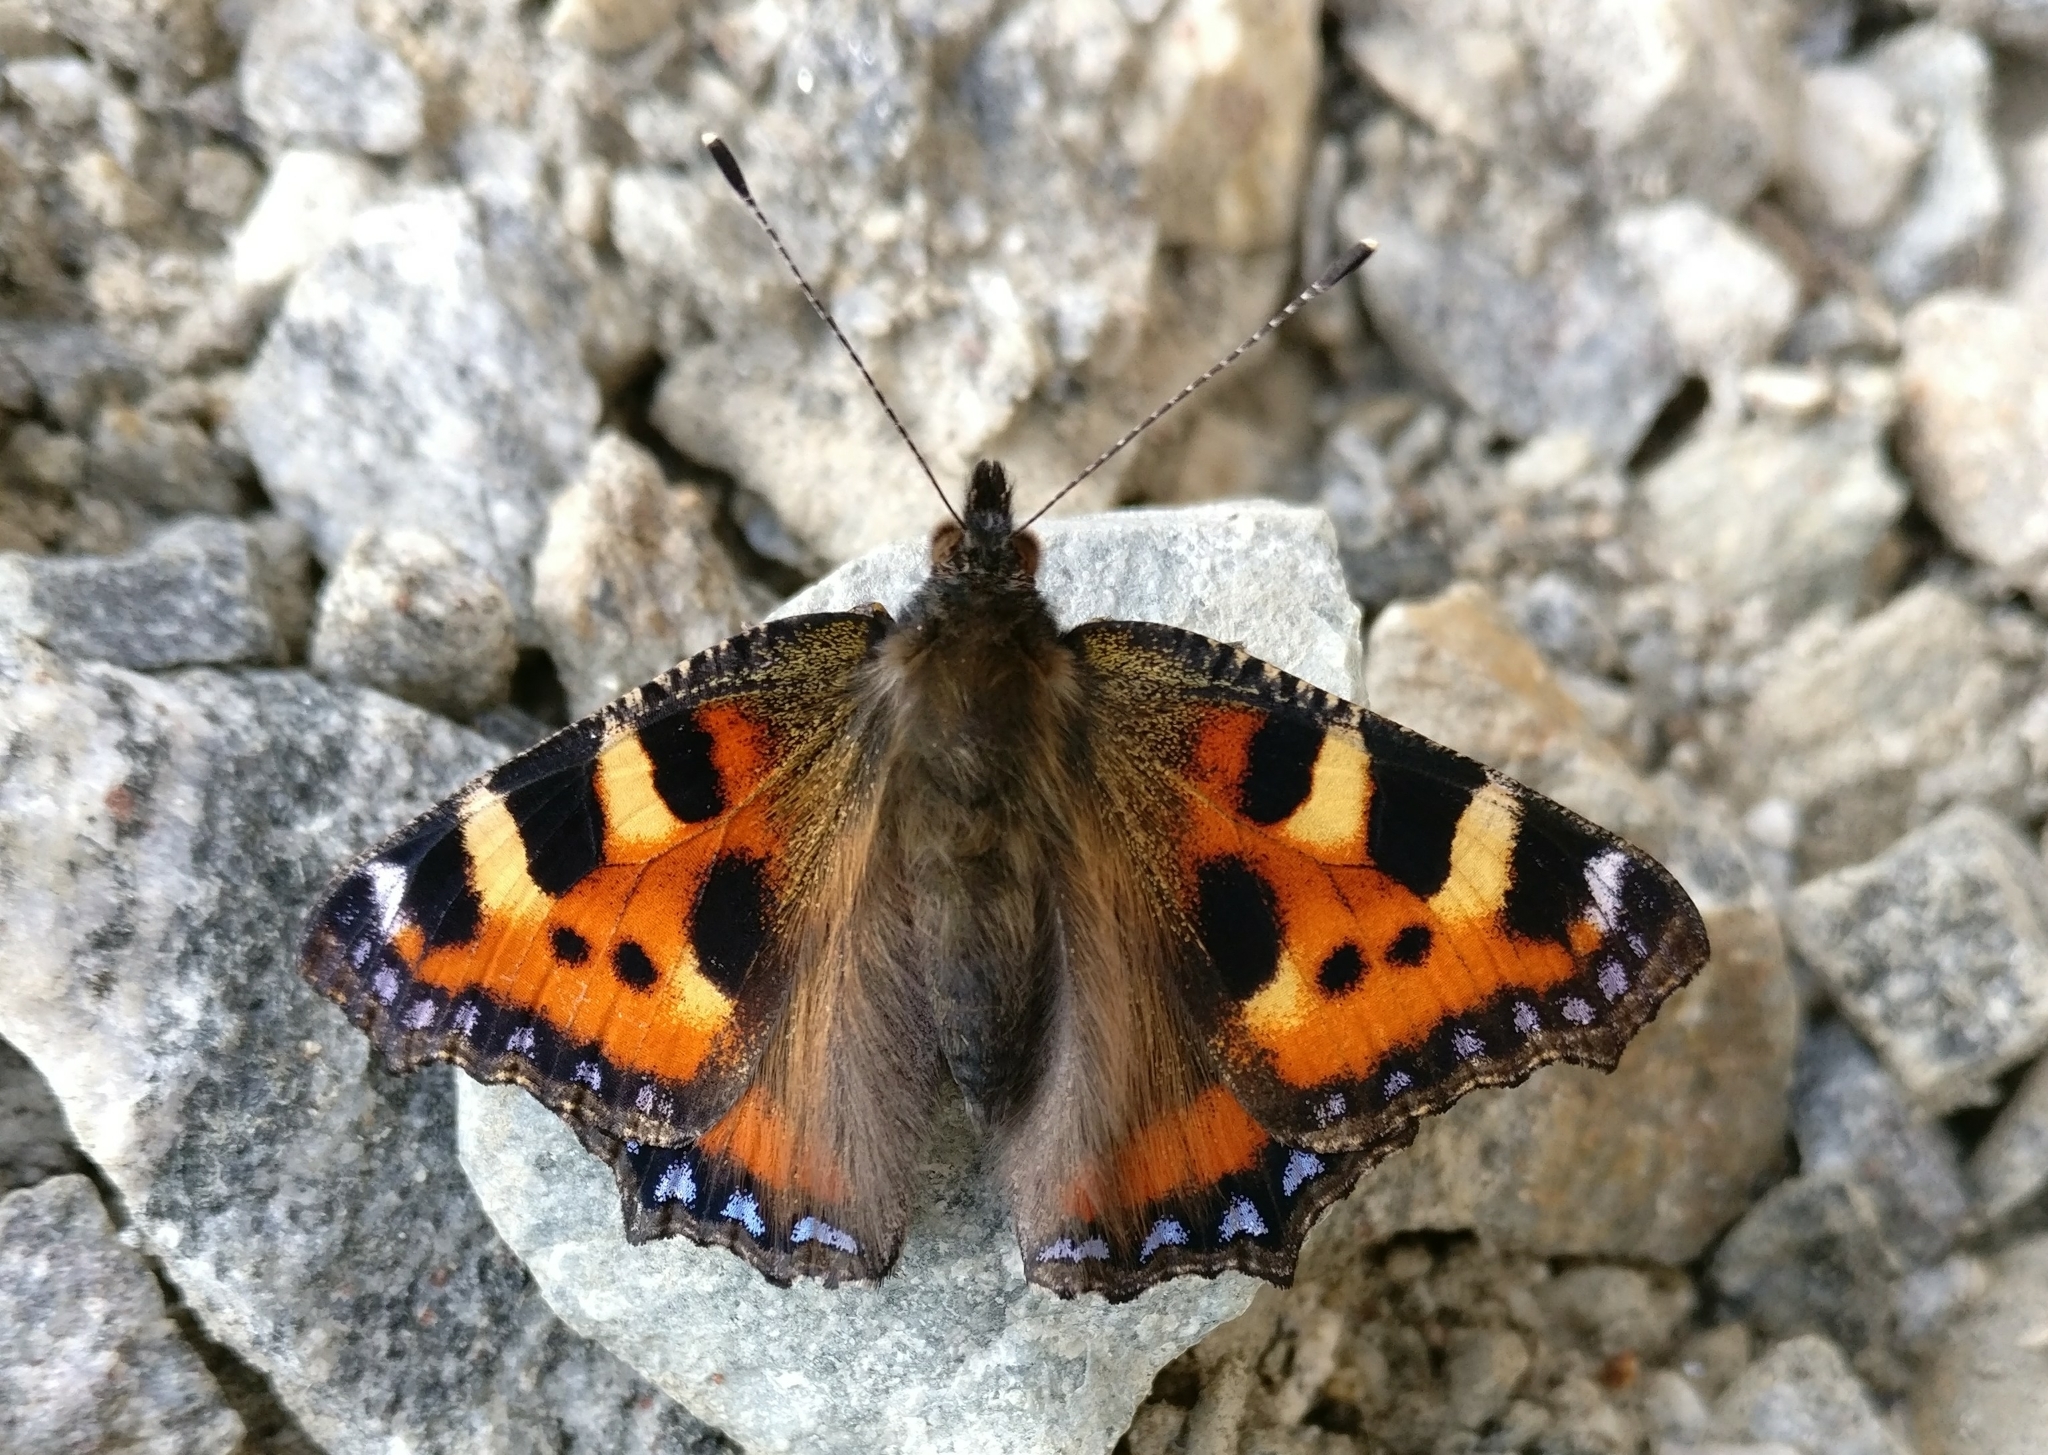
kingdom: Animalia
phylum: Arthropoda
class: Insecta
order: Lepidoptera
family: Nymphalidae
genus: Aglais
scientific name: Aglais urticae
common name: Small tortoiseshell
